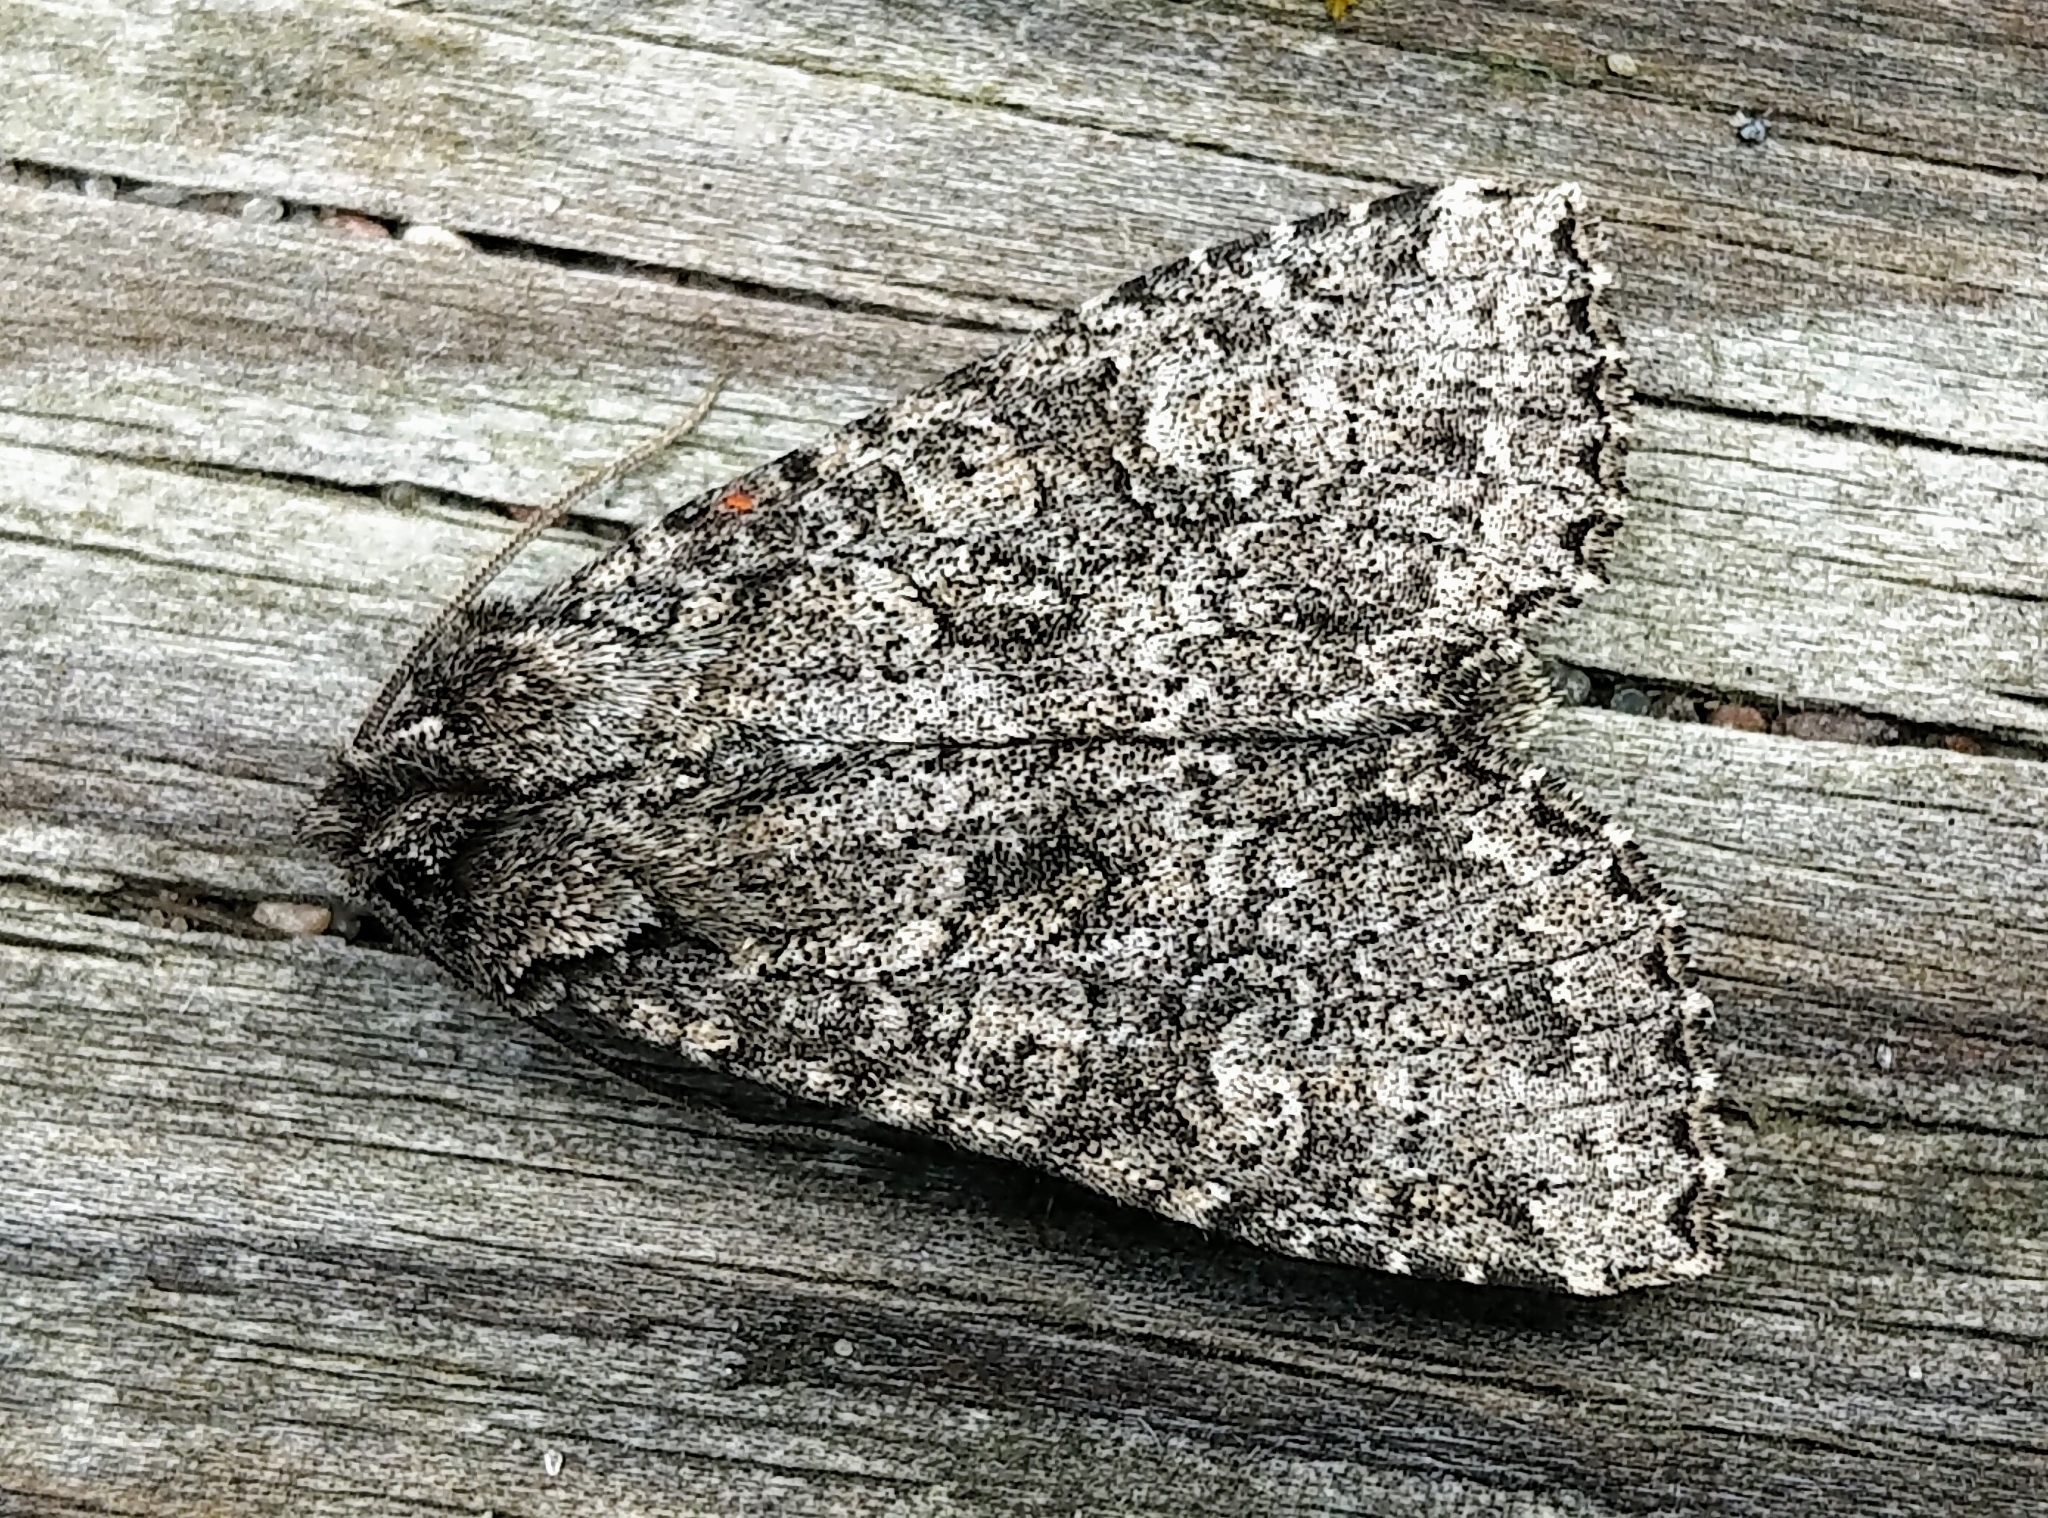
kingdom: Animalia
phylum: Arthropoda
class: Insecta
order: Lepidoptera
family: Noctuidae
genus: Polia
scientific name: Polia imbrifera
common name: Cloudy arches moth
